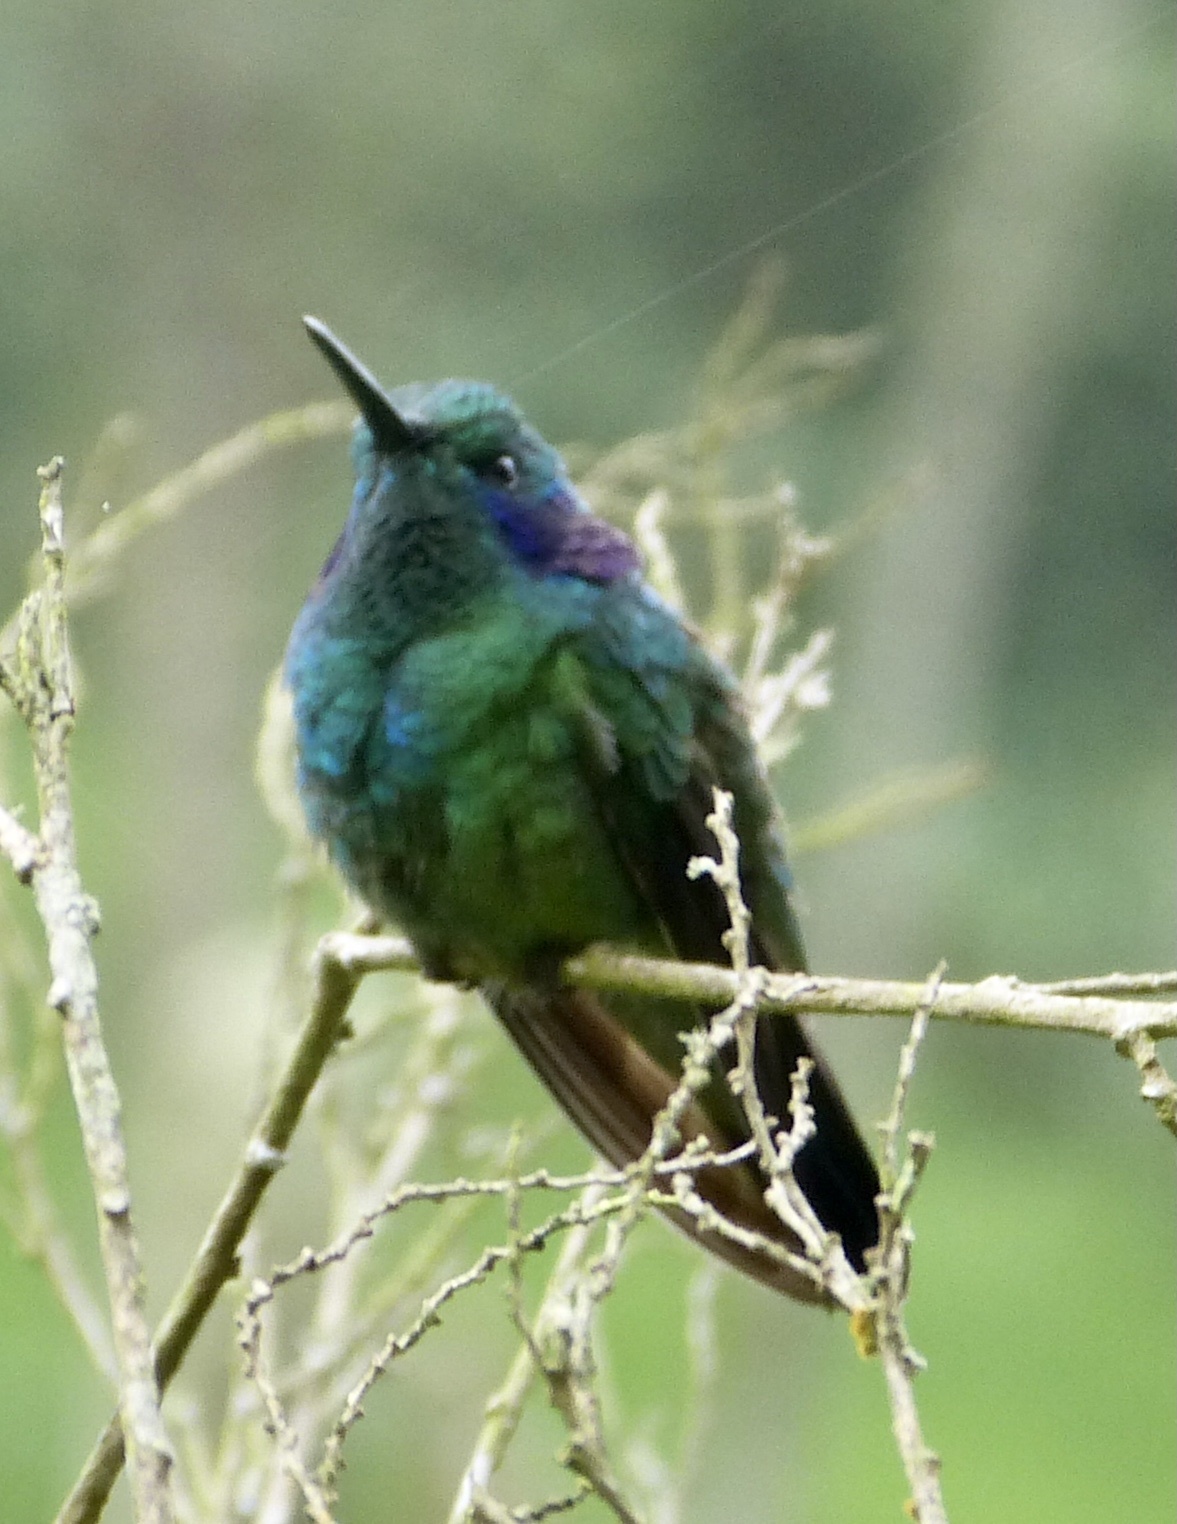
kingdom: Animalia
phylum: Chordata
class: Aves
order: Apodiformes
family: Trochilidae
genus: Colibri
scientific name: Colibri cyanotus
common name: Lesser violetear
